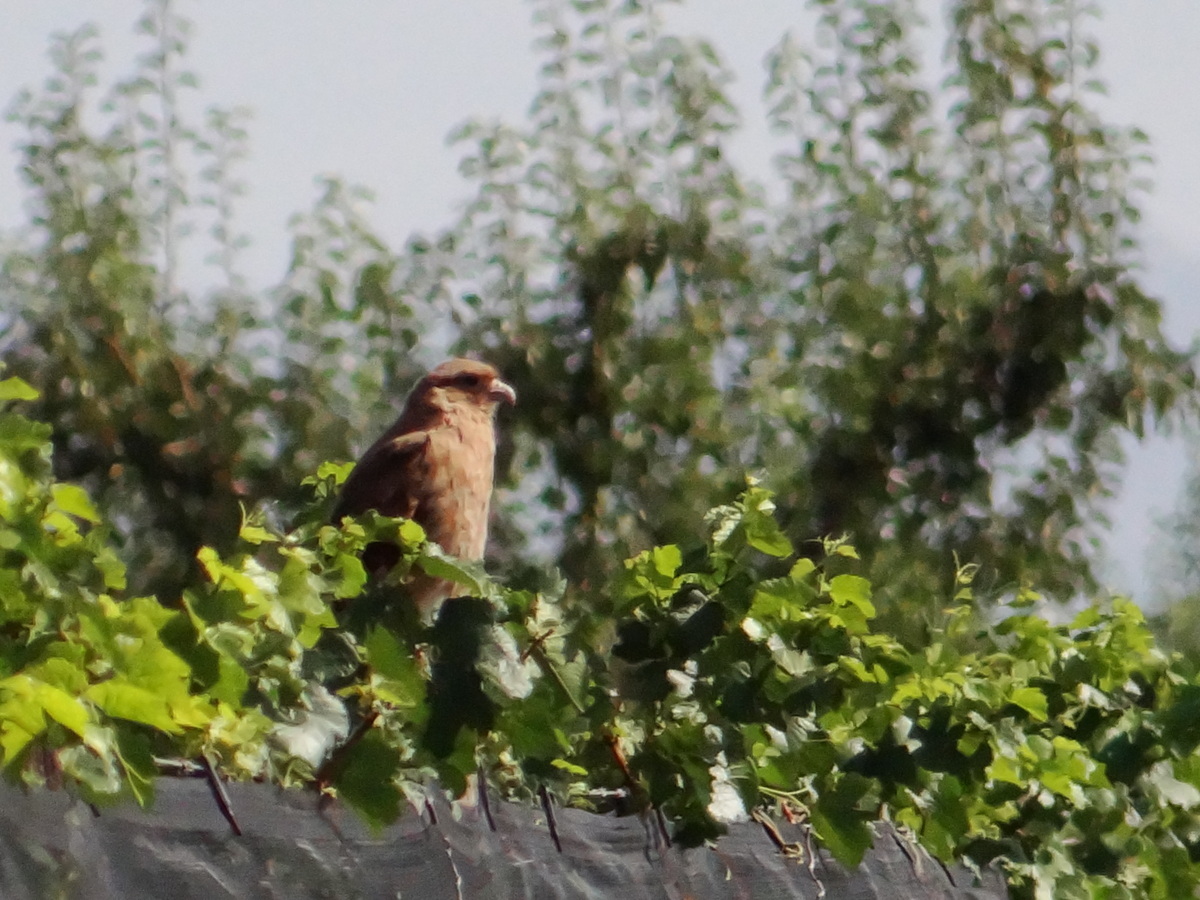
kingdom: Animalia
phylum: Chordata
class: Aves
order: Falconiformes
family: Falconidae
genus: Daptrius
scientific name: Daptrius
